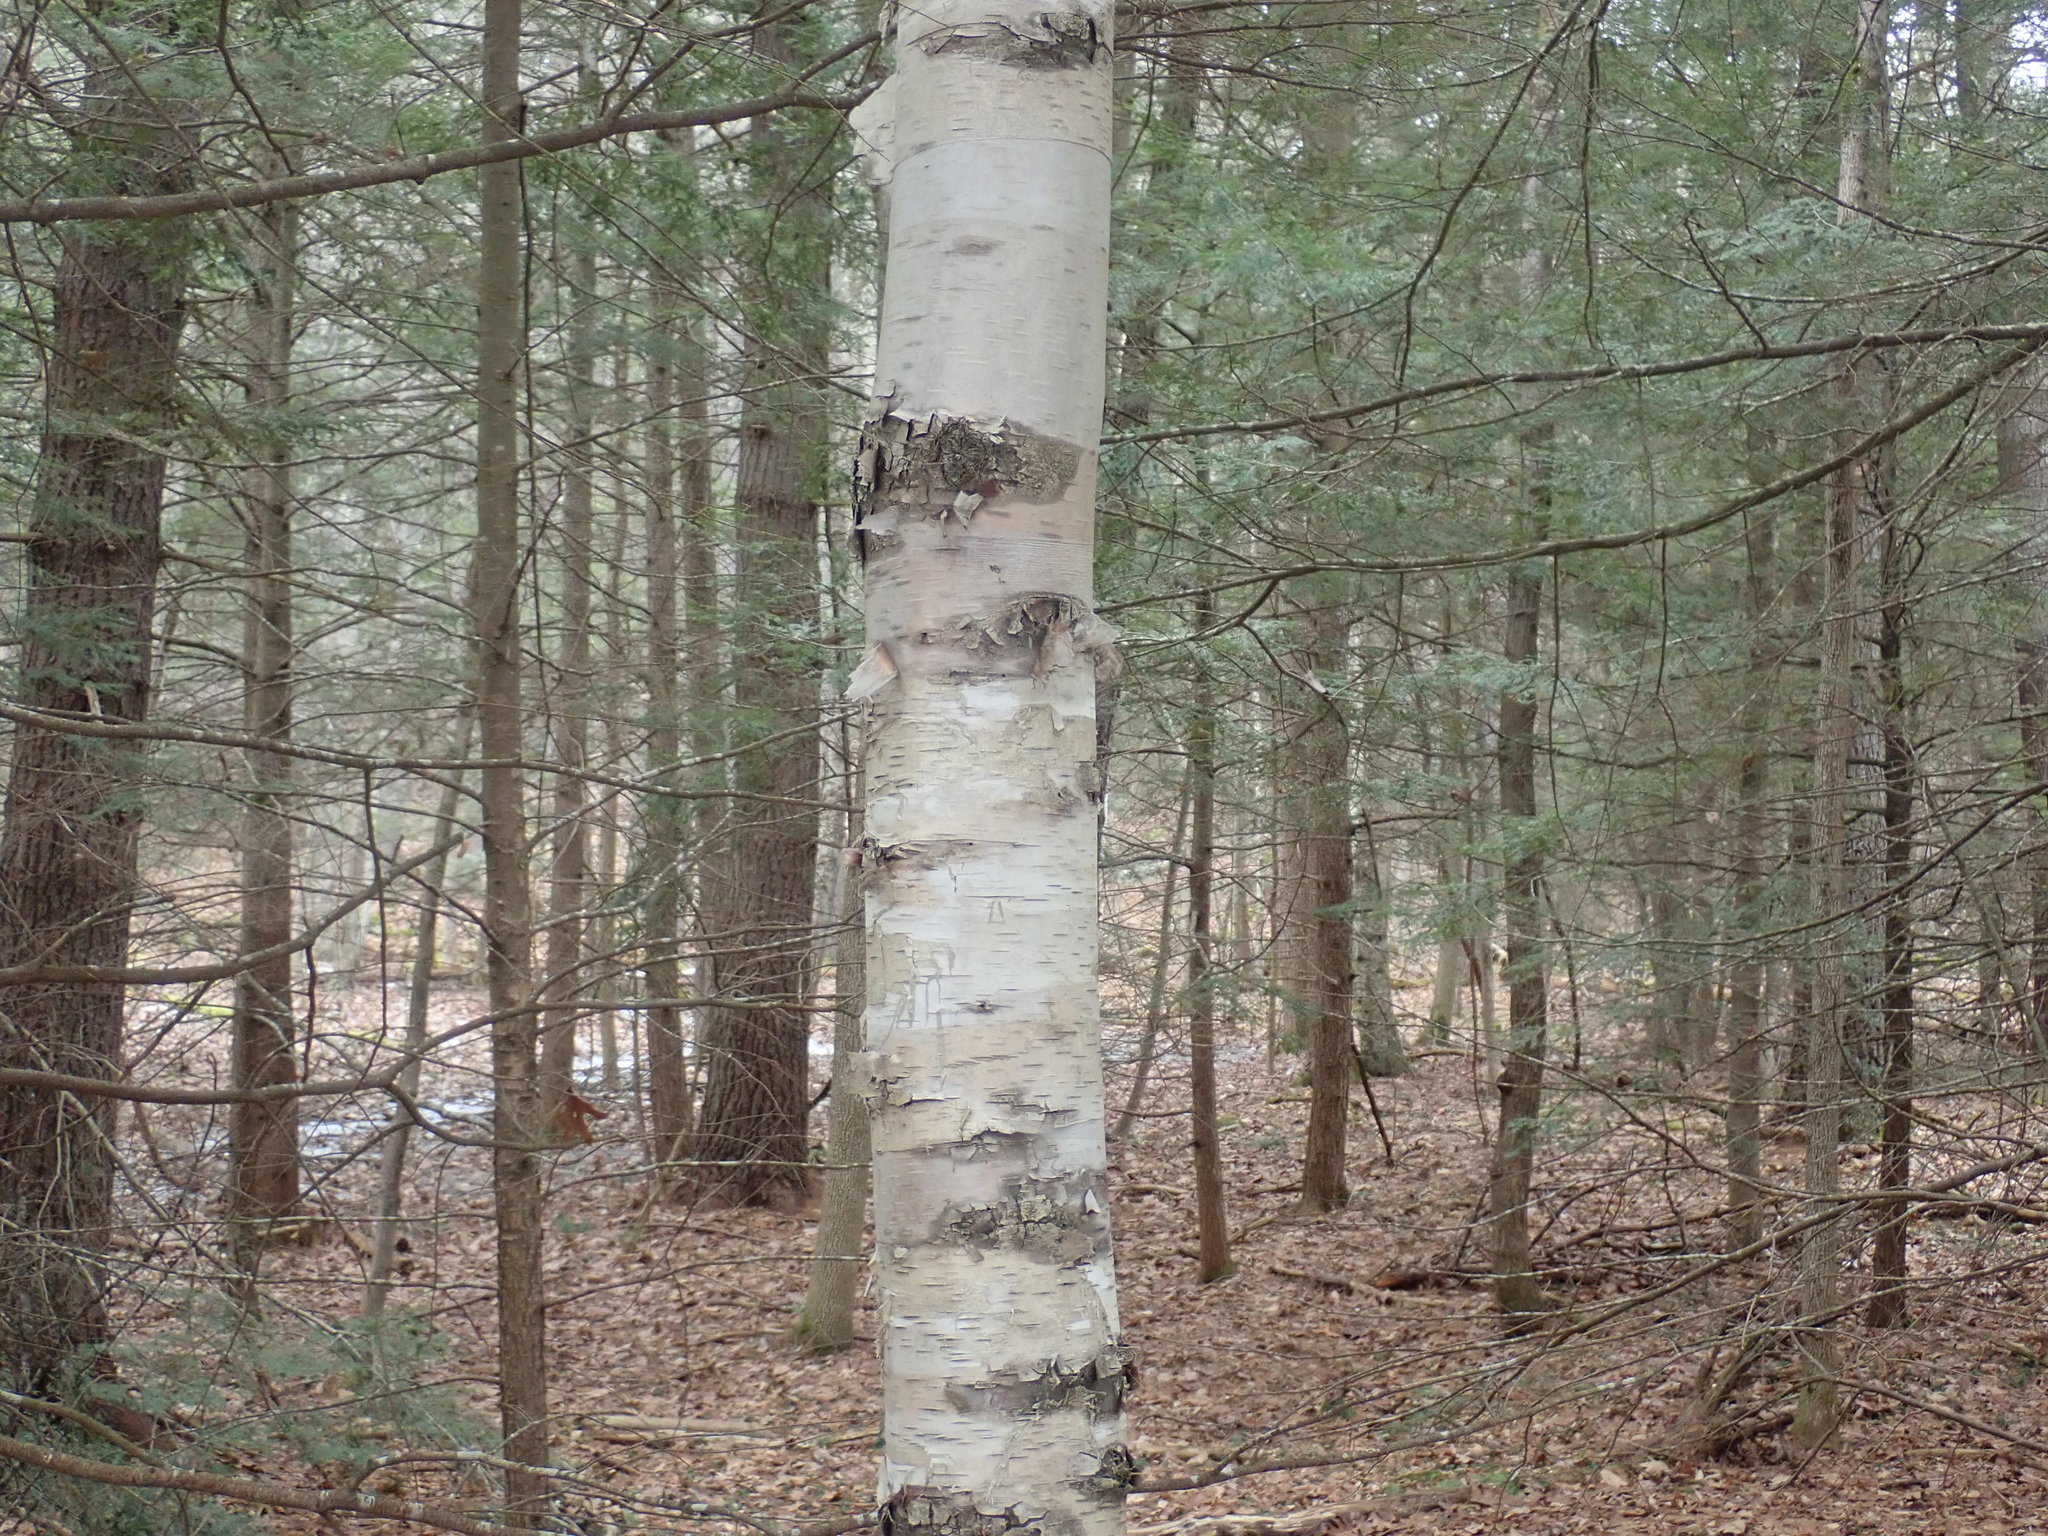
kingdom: Plantae
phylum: Tracheophyta
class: Magnoliopsida
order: Fagales
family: Betulaceae
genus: Betula
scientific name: Betula papyrifera
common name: Paper birch
